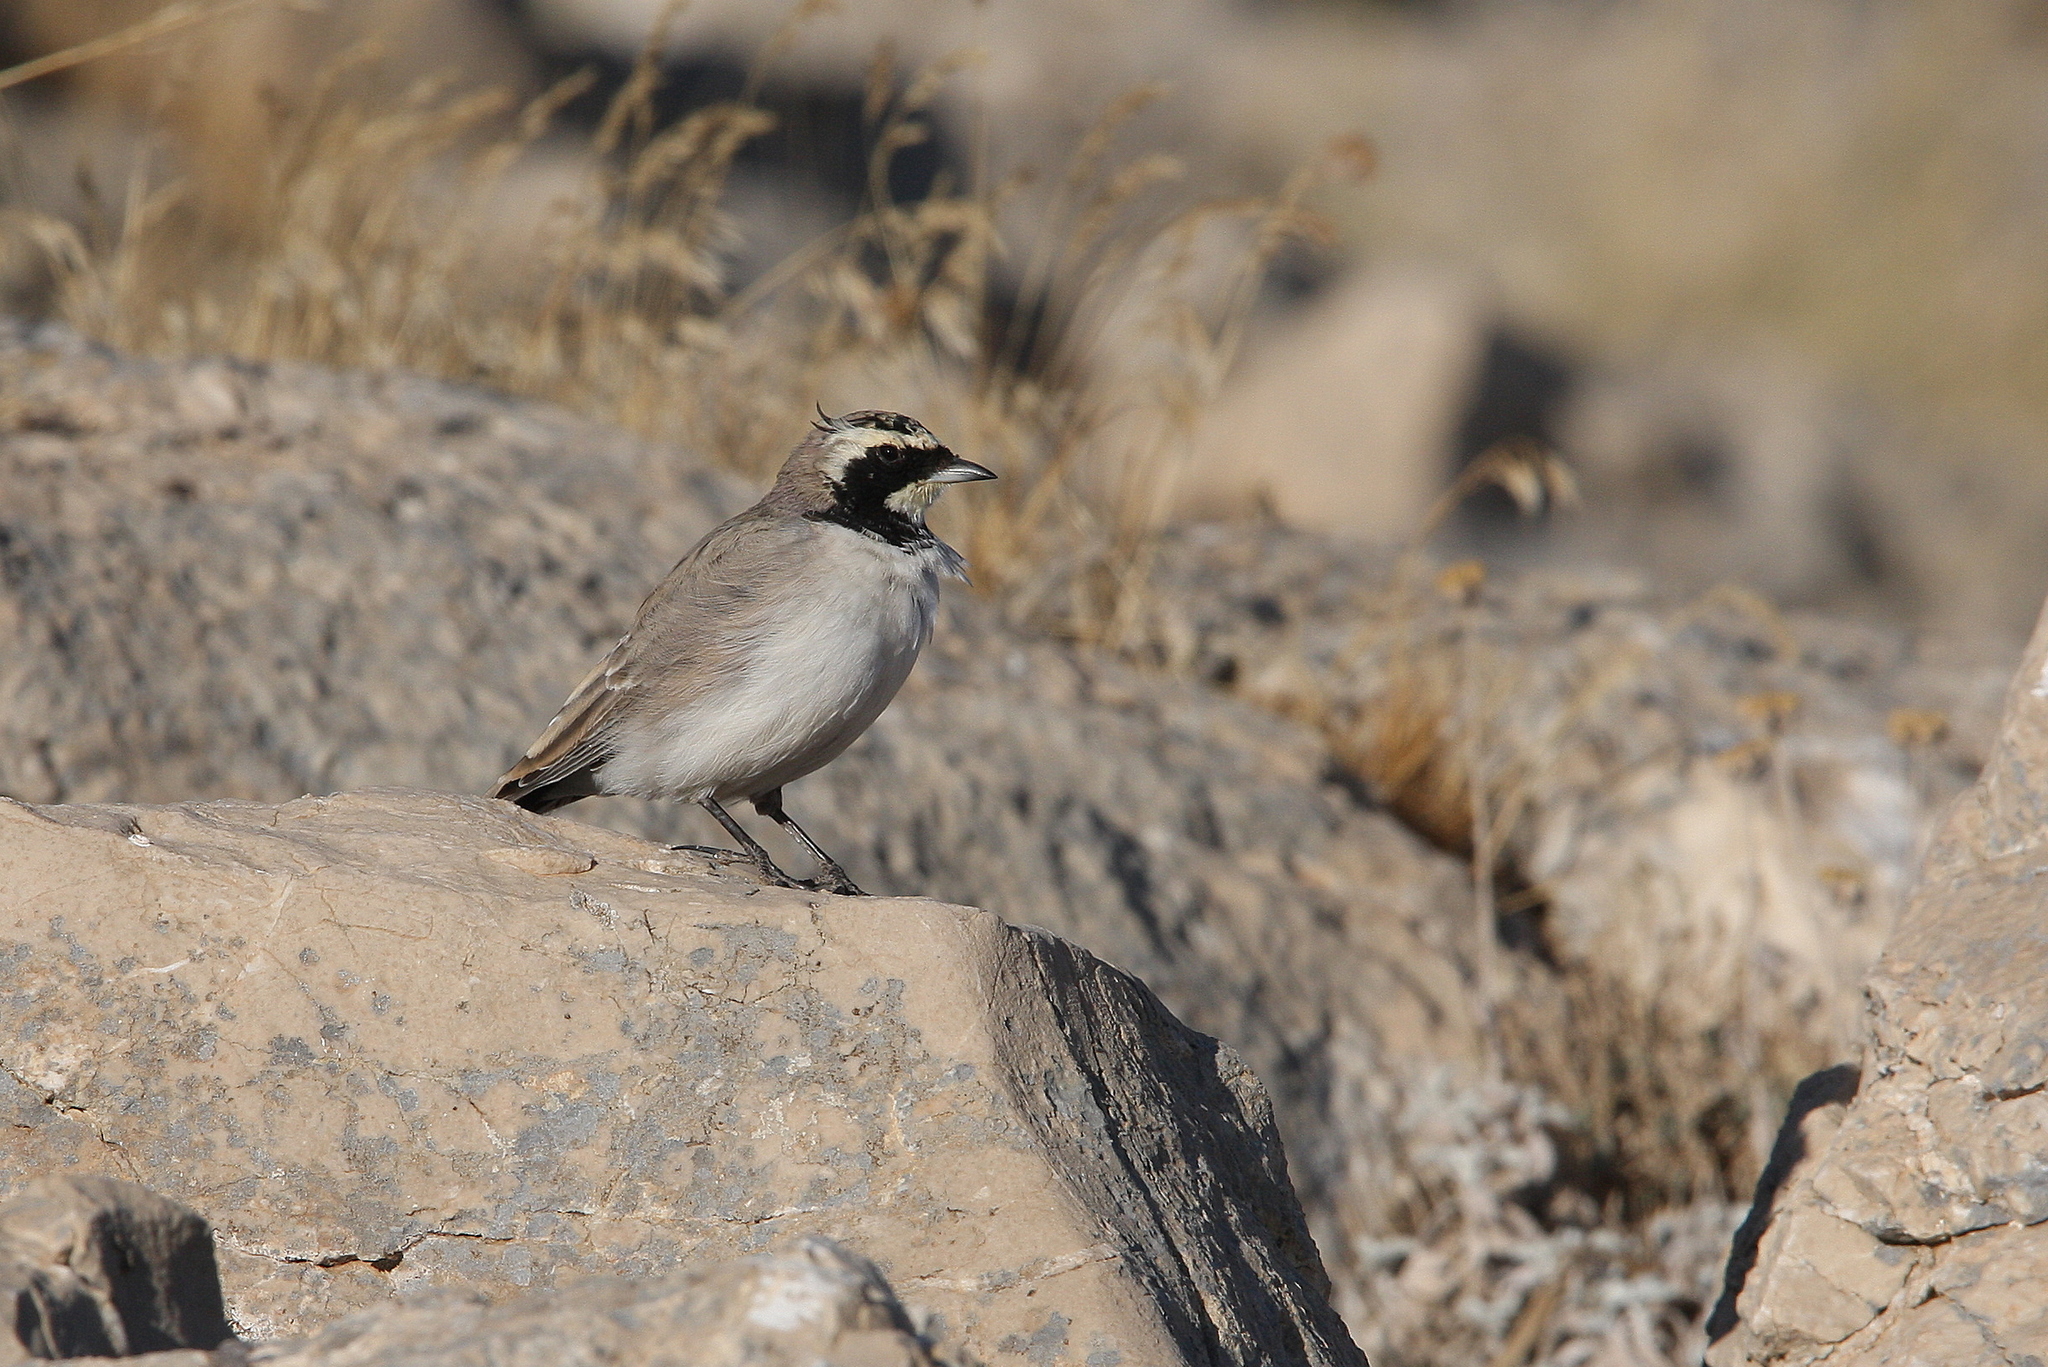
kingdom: Animalia
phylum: Chordata
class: Aves
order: Passeriformes
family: Alaudidae
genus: Eremophila
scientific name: Eremophila alpestris
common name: Horned lark
